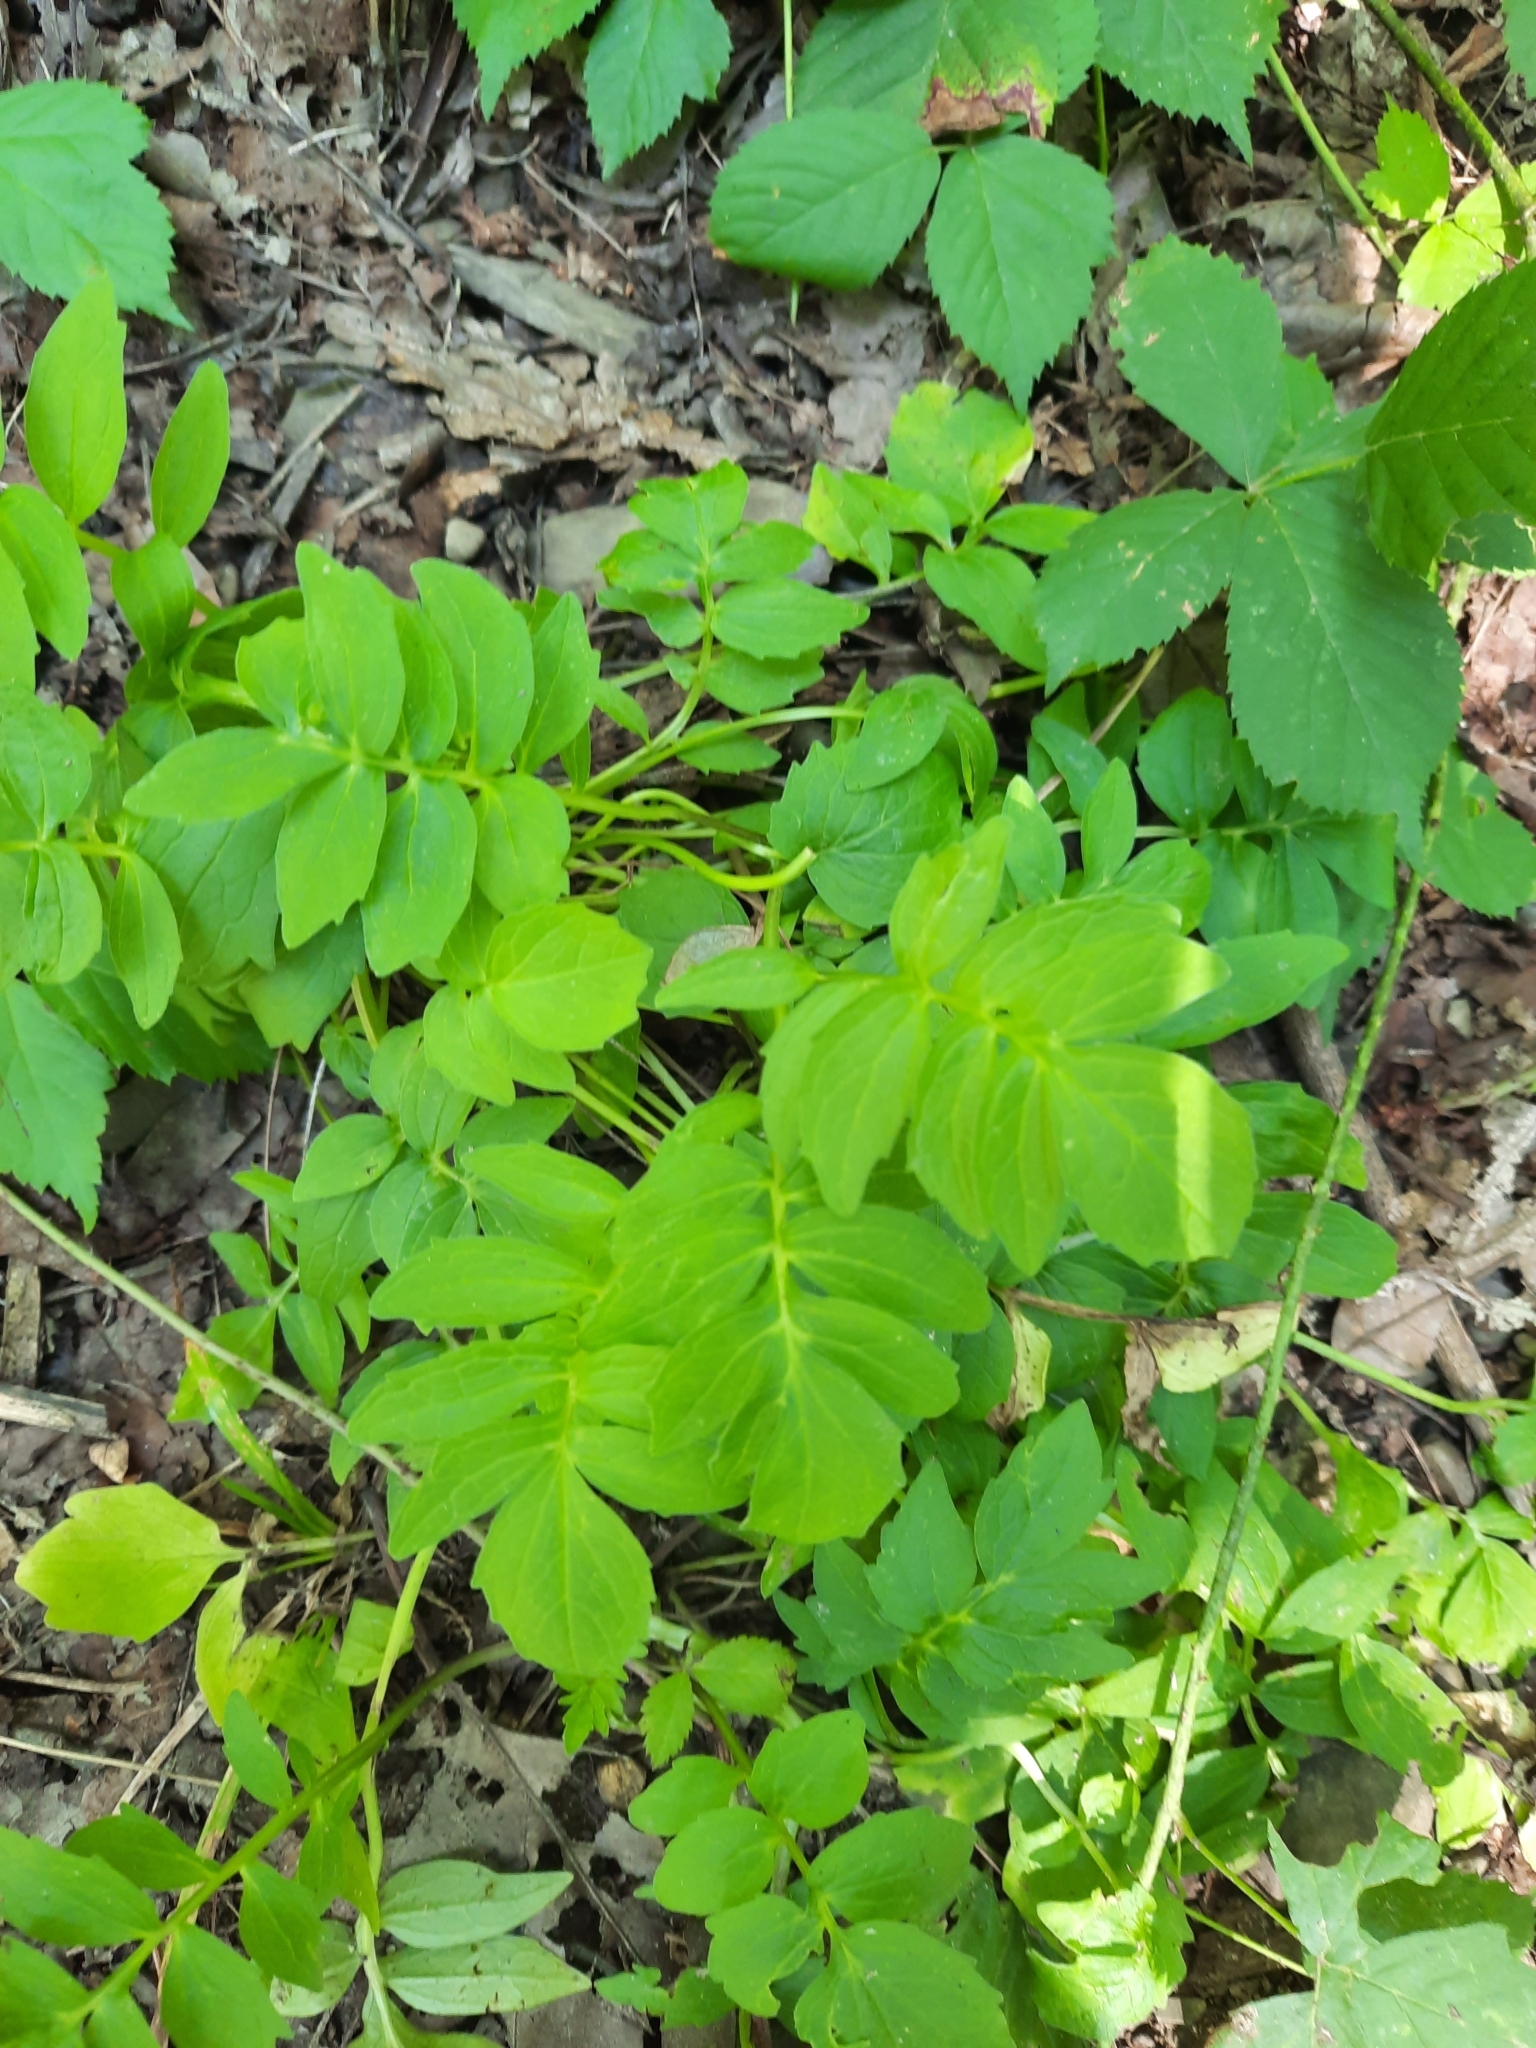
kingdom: Plantae
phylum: Tracheophyta
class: Magnoliopsida
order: Dipsacales
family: Caprifoliaceae
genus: Valeriana
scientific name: Valeriana officinalis
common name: Common valerian
